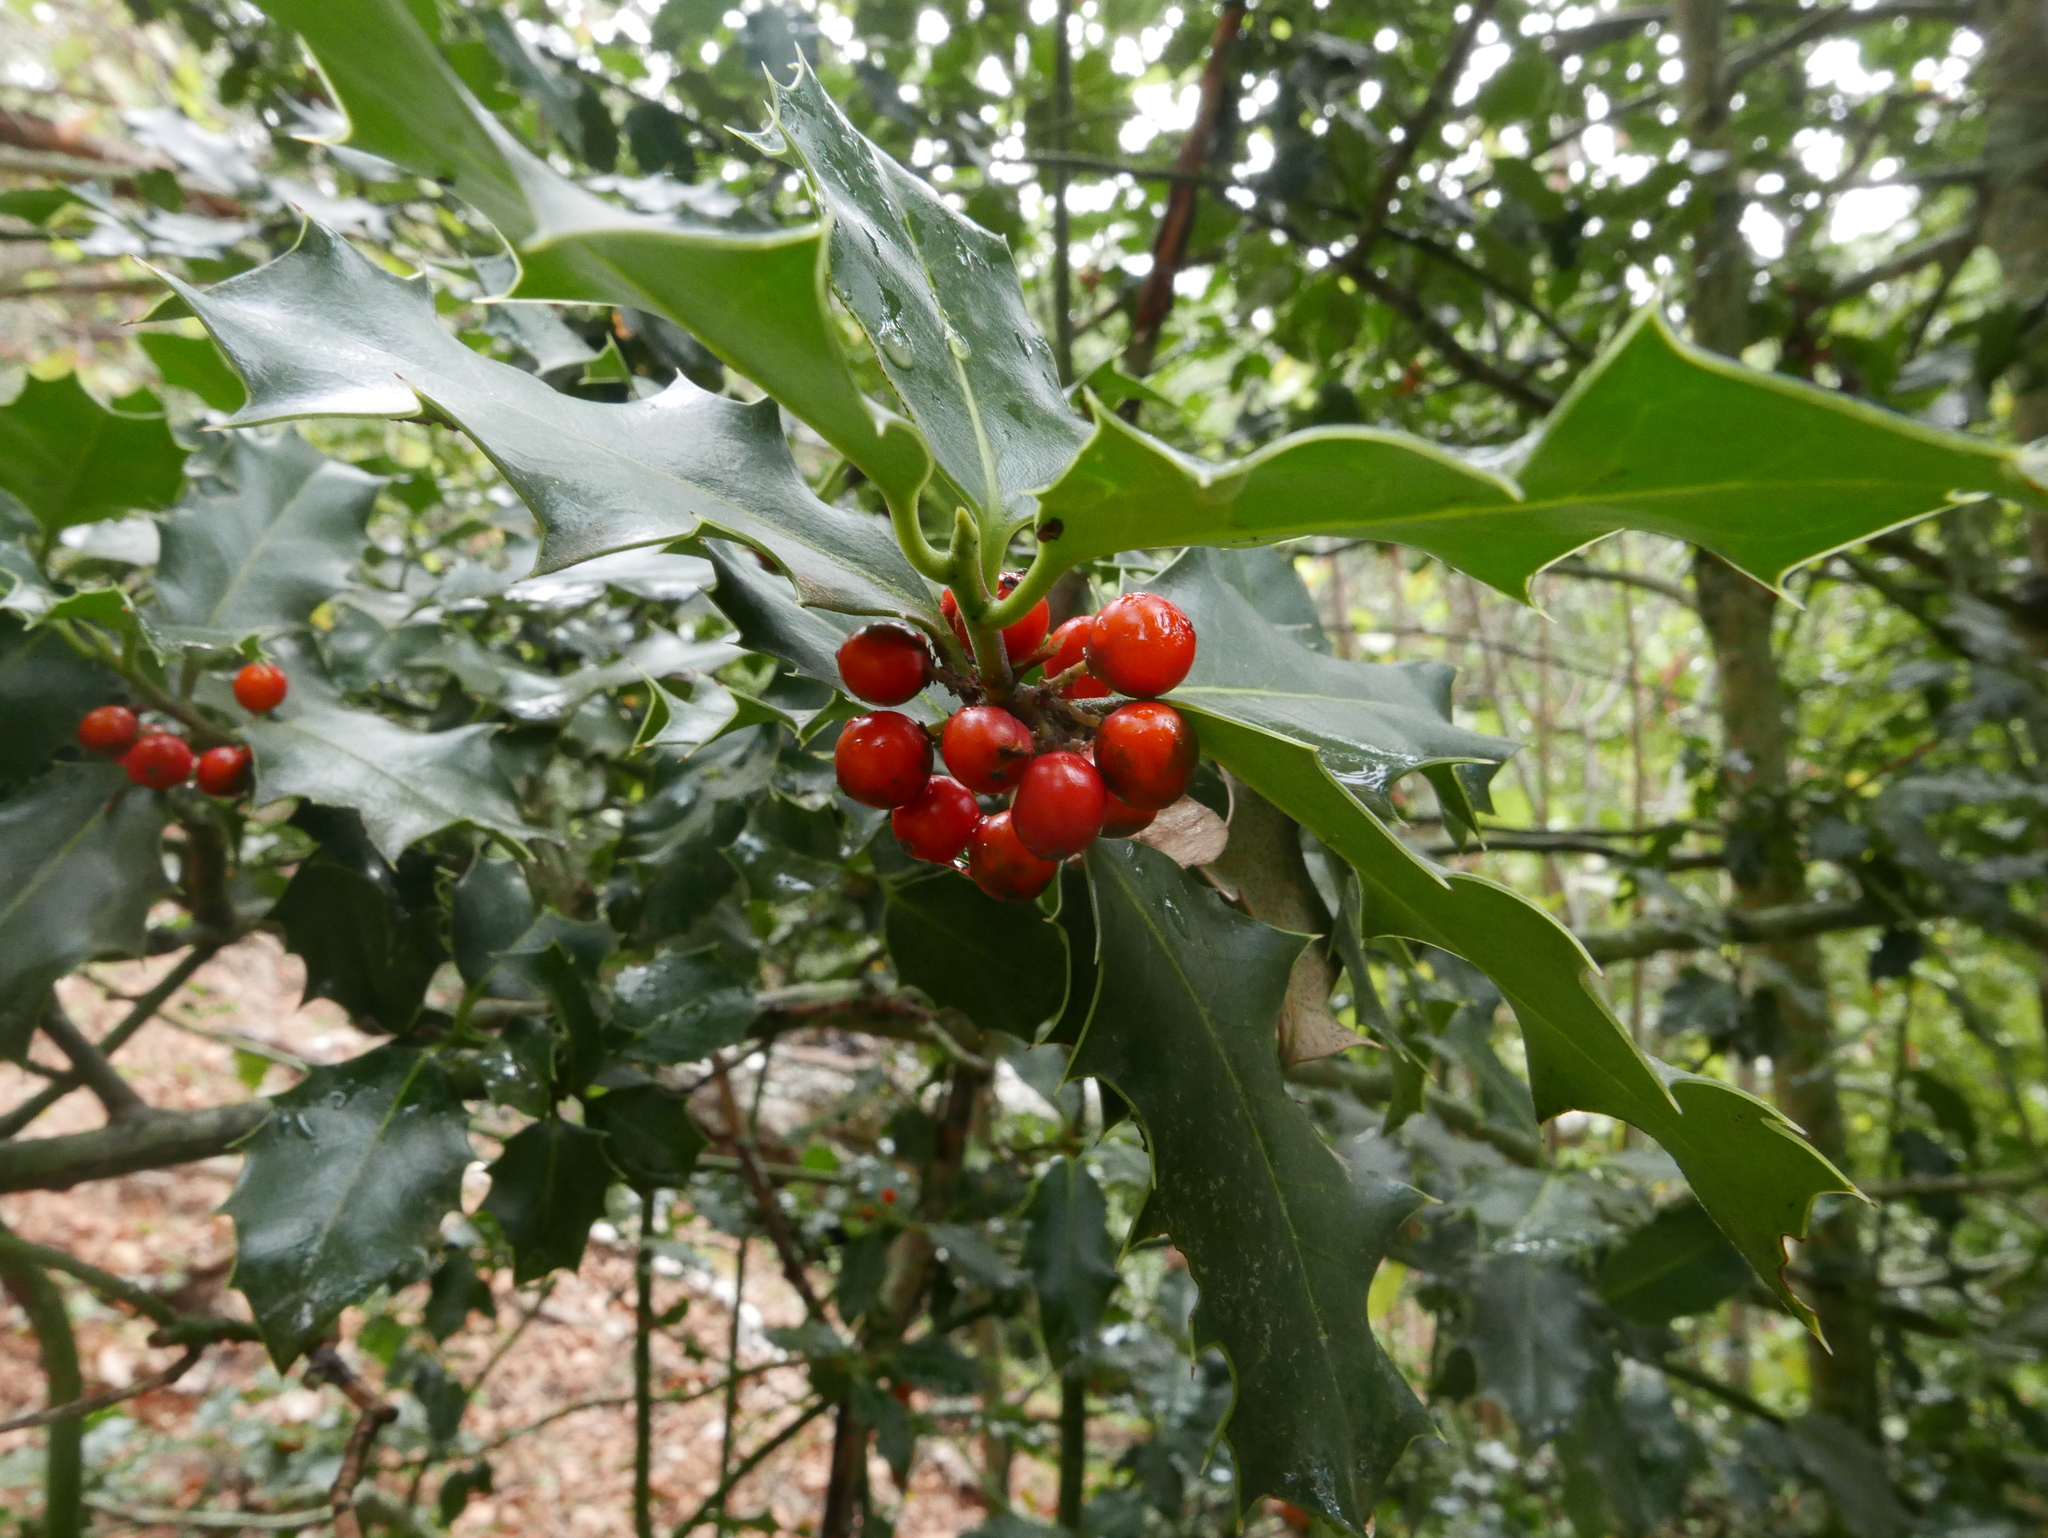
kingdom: Plantae
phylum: Tracheophyta
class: Magnoliopsida
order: Aquifoliales
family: Aquifoliaceae
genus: Ilex
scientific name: Ilex aquifolium
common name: English holly
